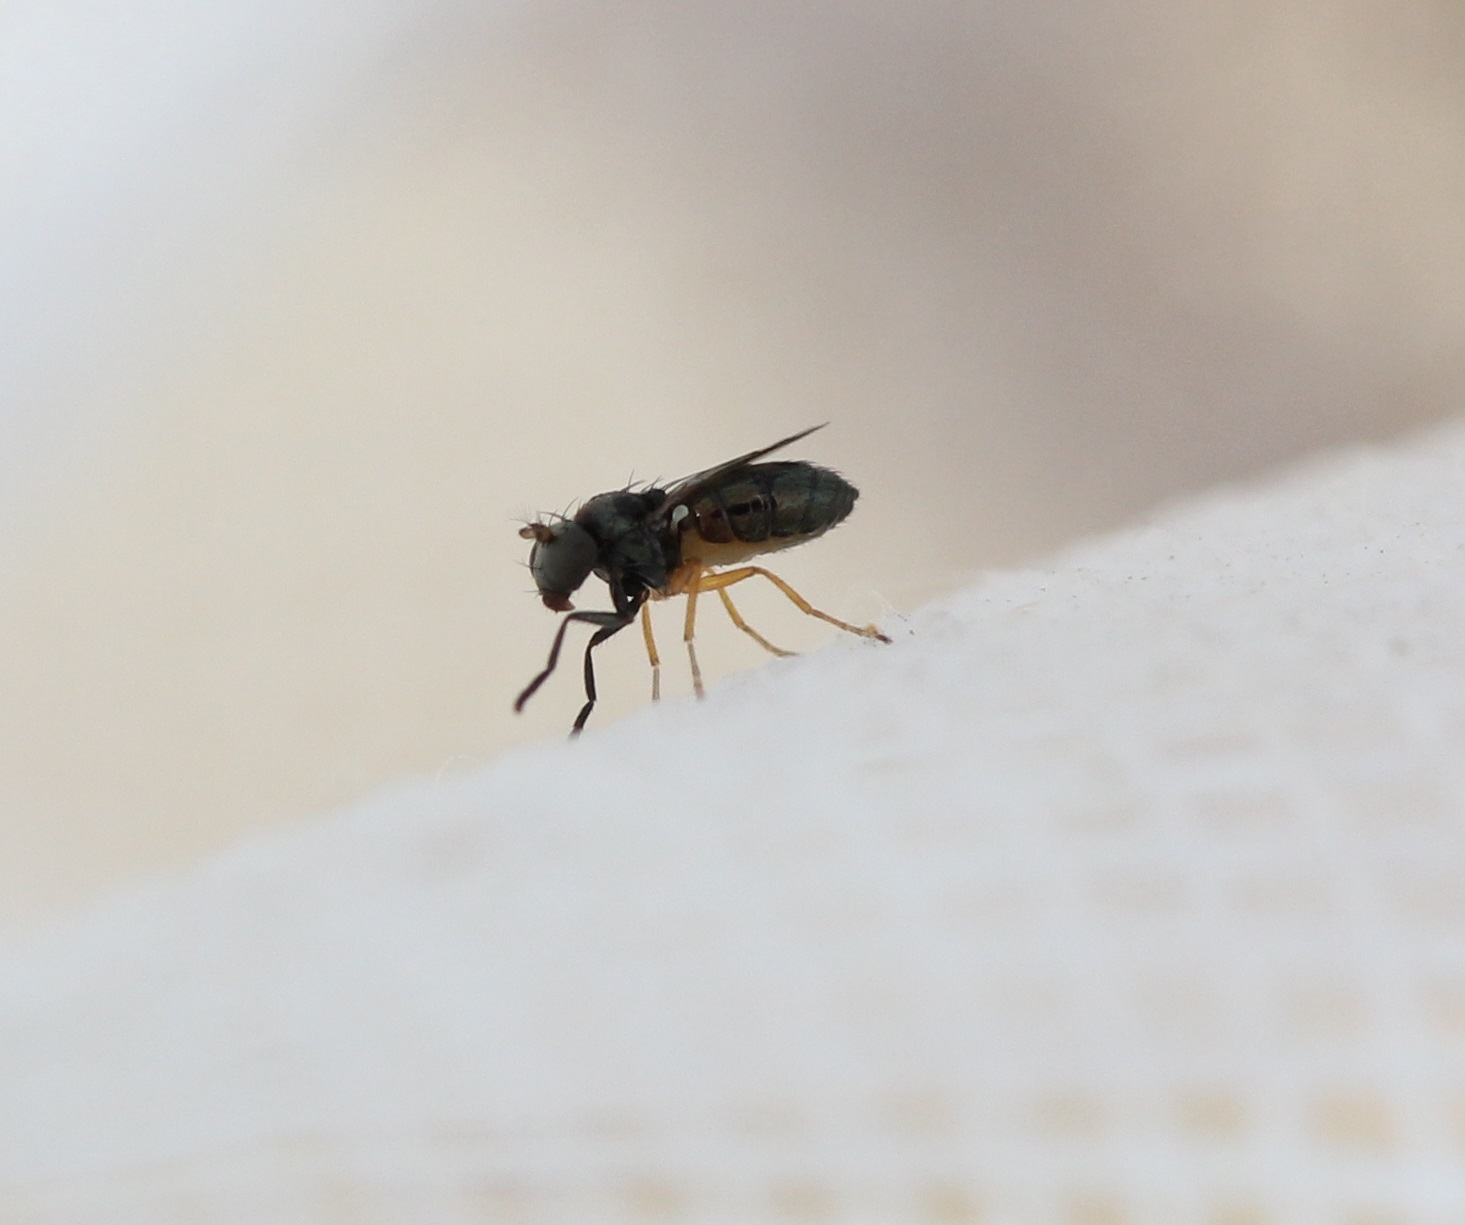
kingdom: Animalia
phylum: Arthropoda
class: Insecta
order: Diptera
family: Ephydridae
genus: Leptopsilopa
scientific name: Leptopsilopa atrimanus
